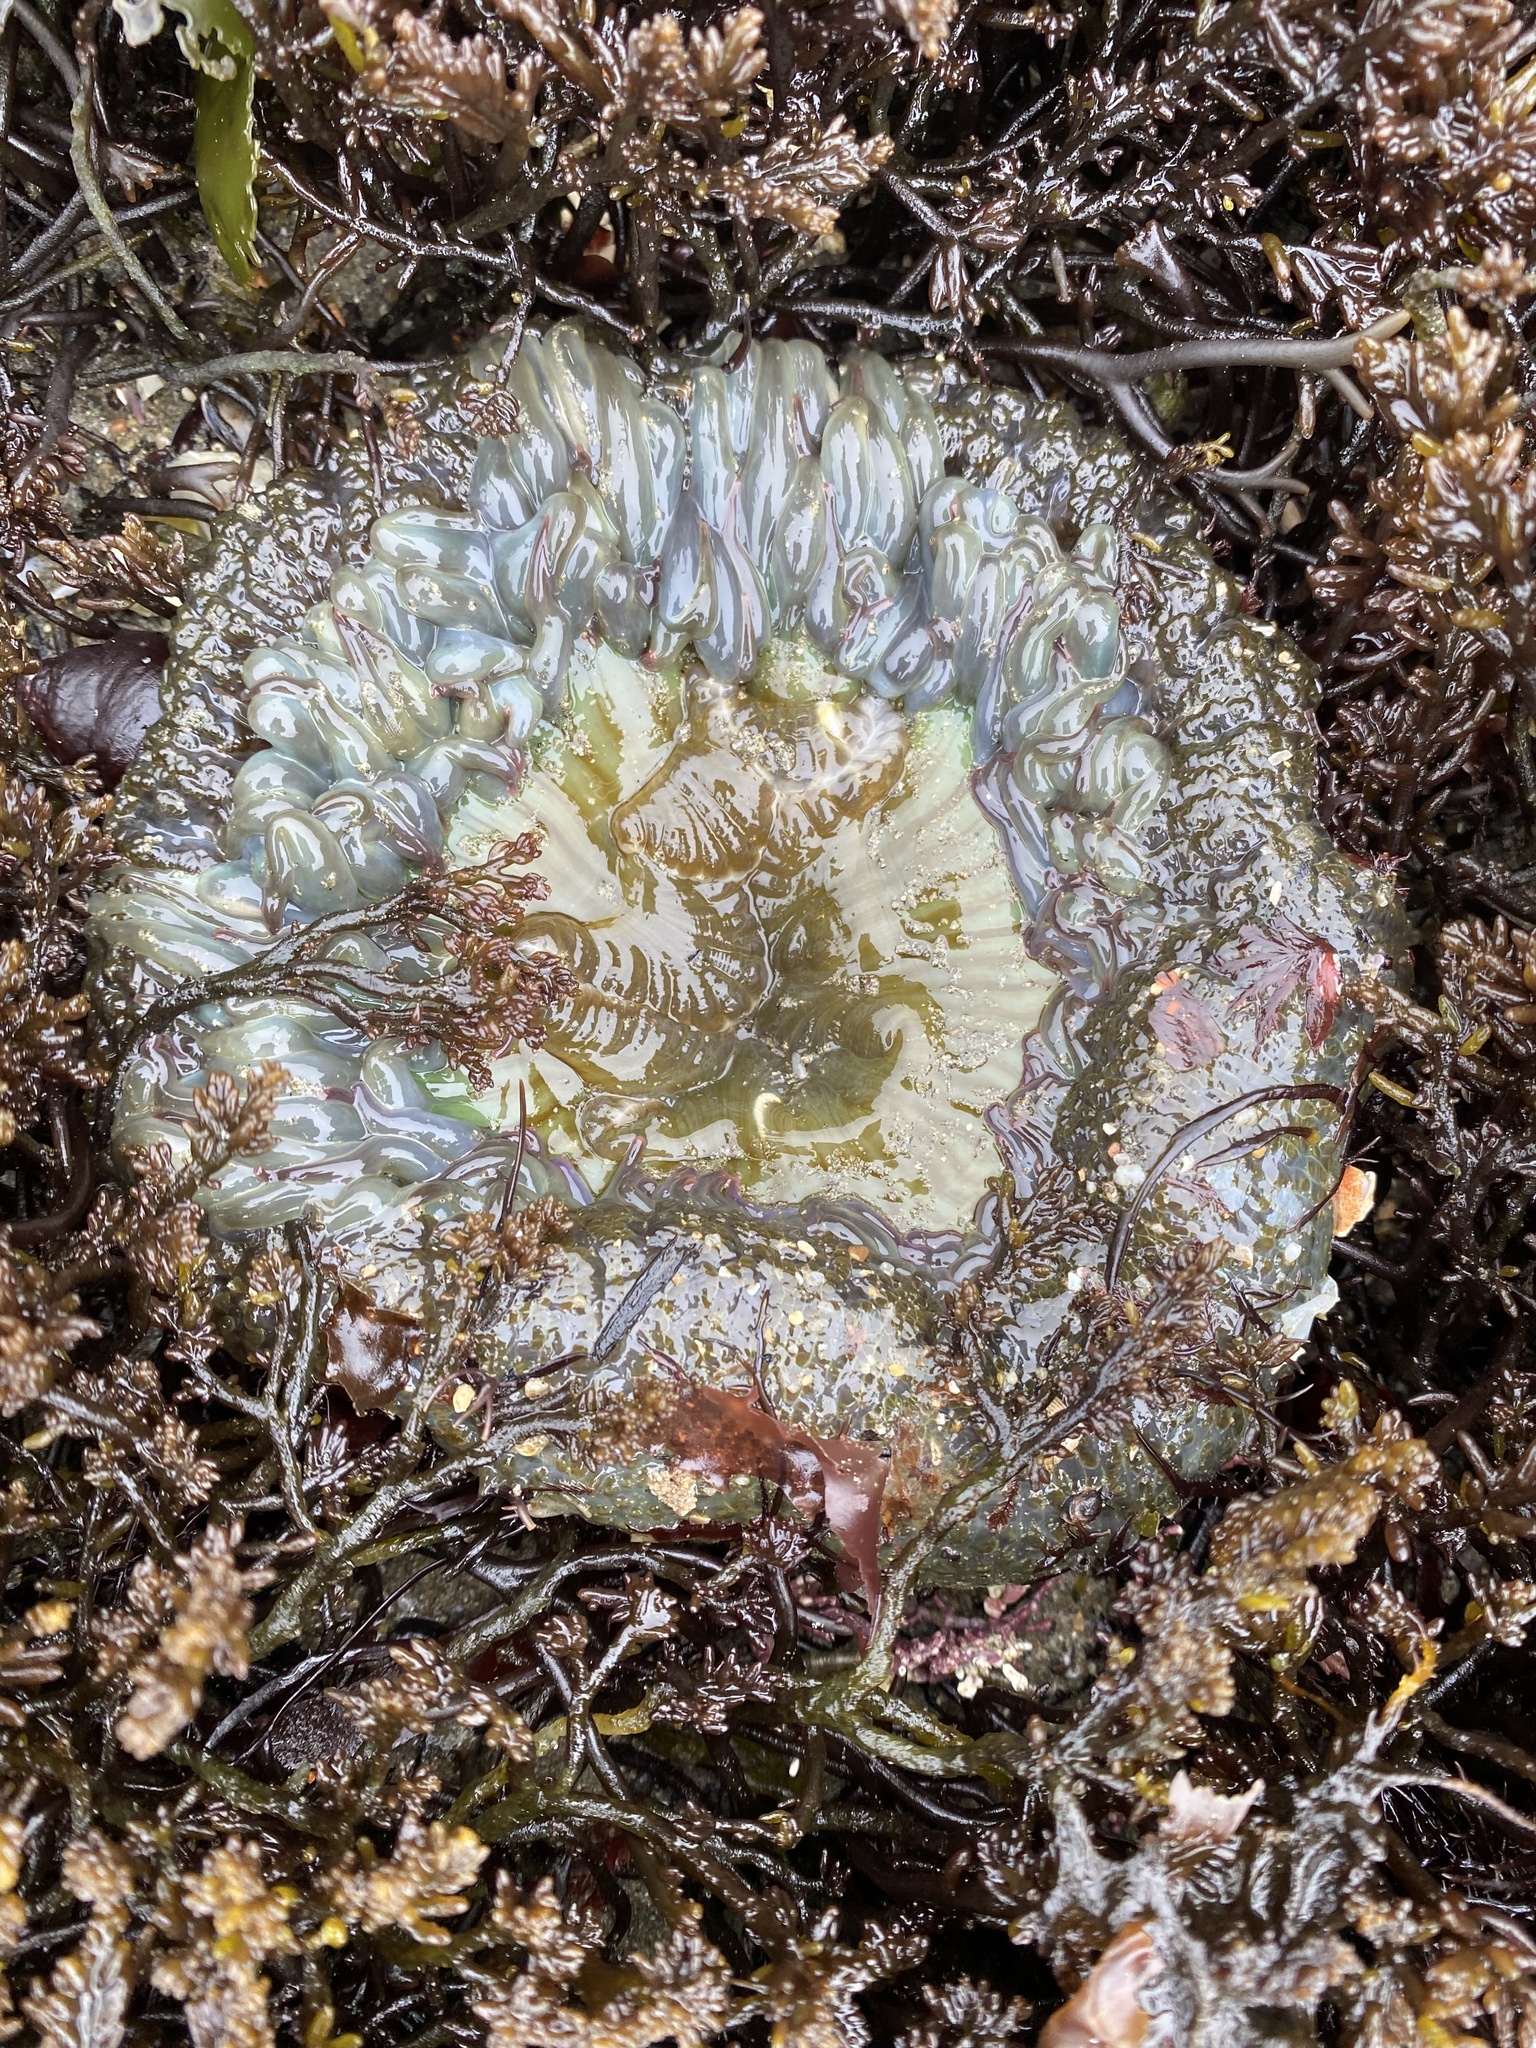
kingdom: Animalia
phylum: Cnidaria
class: Anthozoa
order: Actiniaria
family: Actiniidae
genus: Anthopleura
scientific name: Anthopleura sola
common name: Sun anemone
